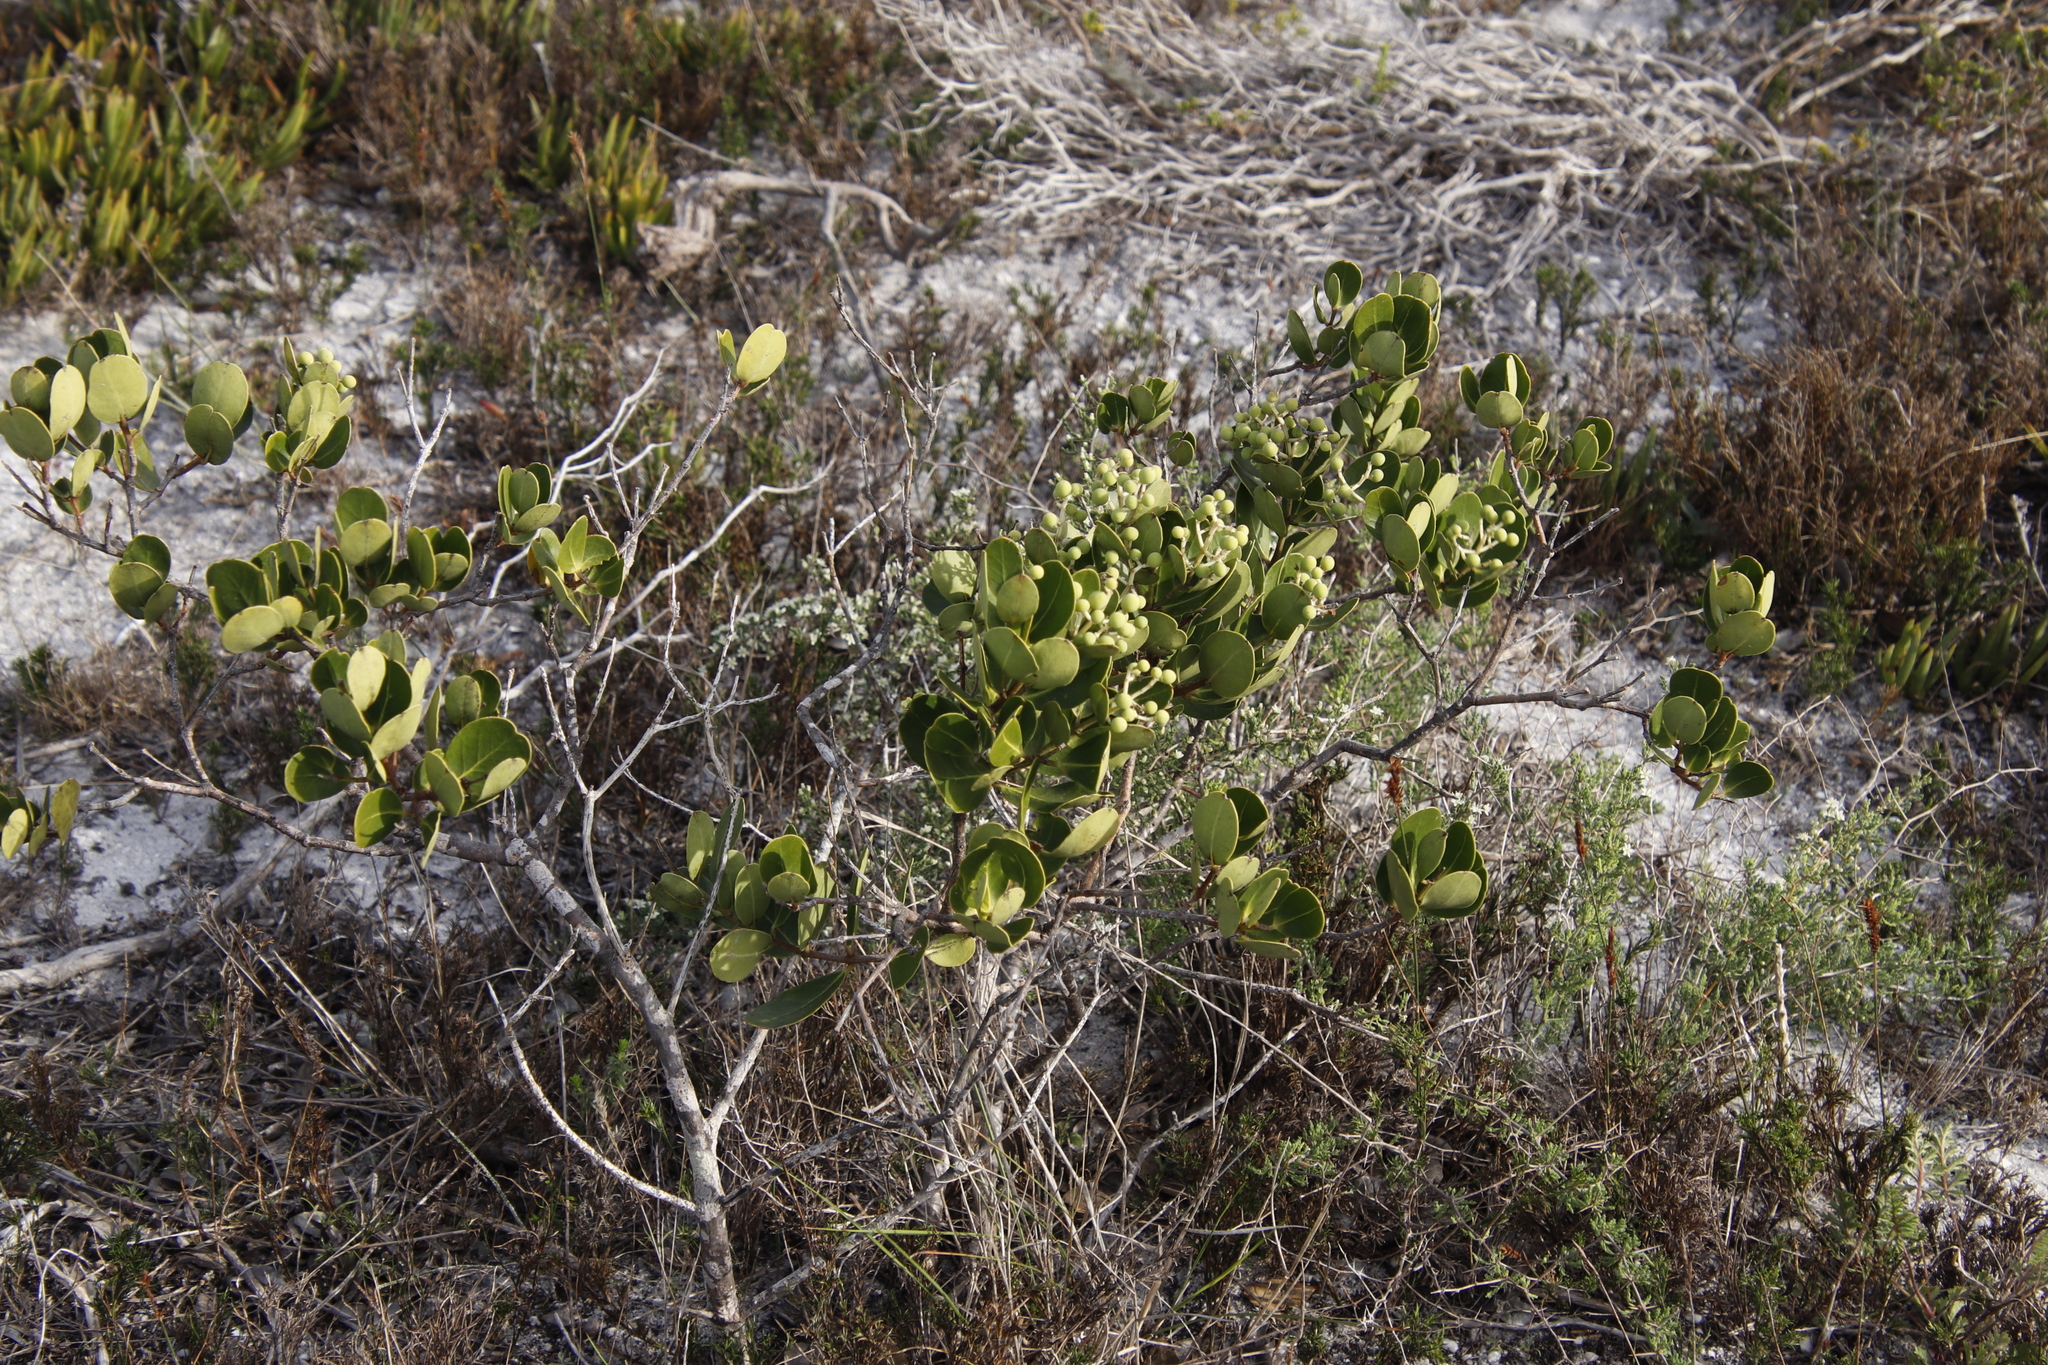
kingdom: Plantae
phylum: Tracheophyta
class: Magnoliopsida
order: Lamiales
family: Oleaceae
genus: Olea
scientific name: Olea capensis
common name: Black ironwood
